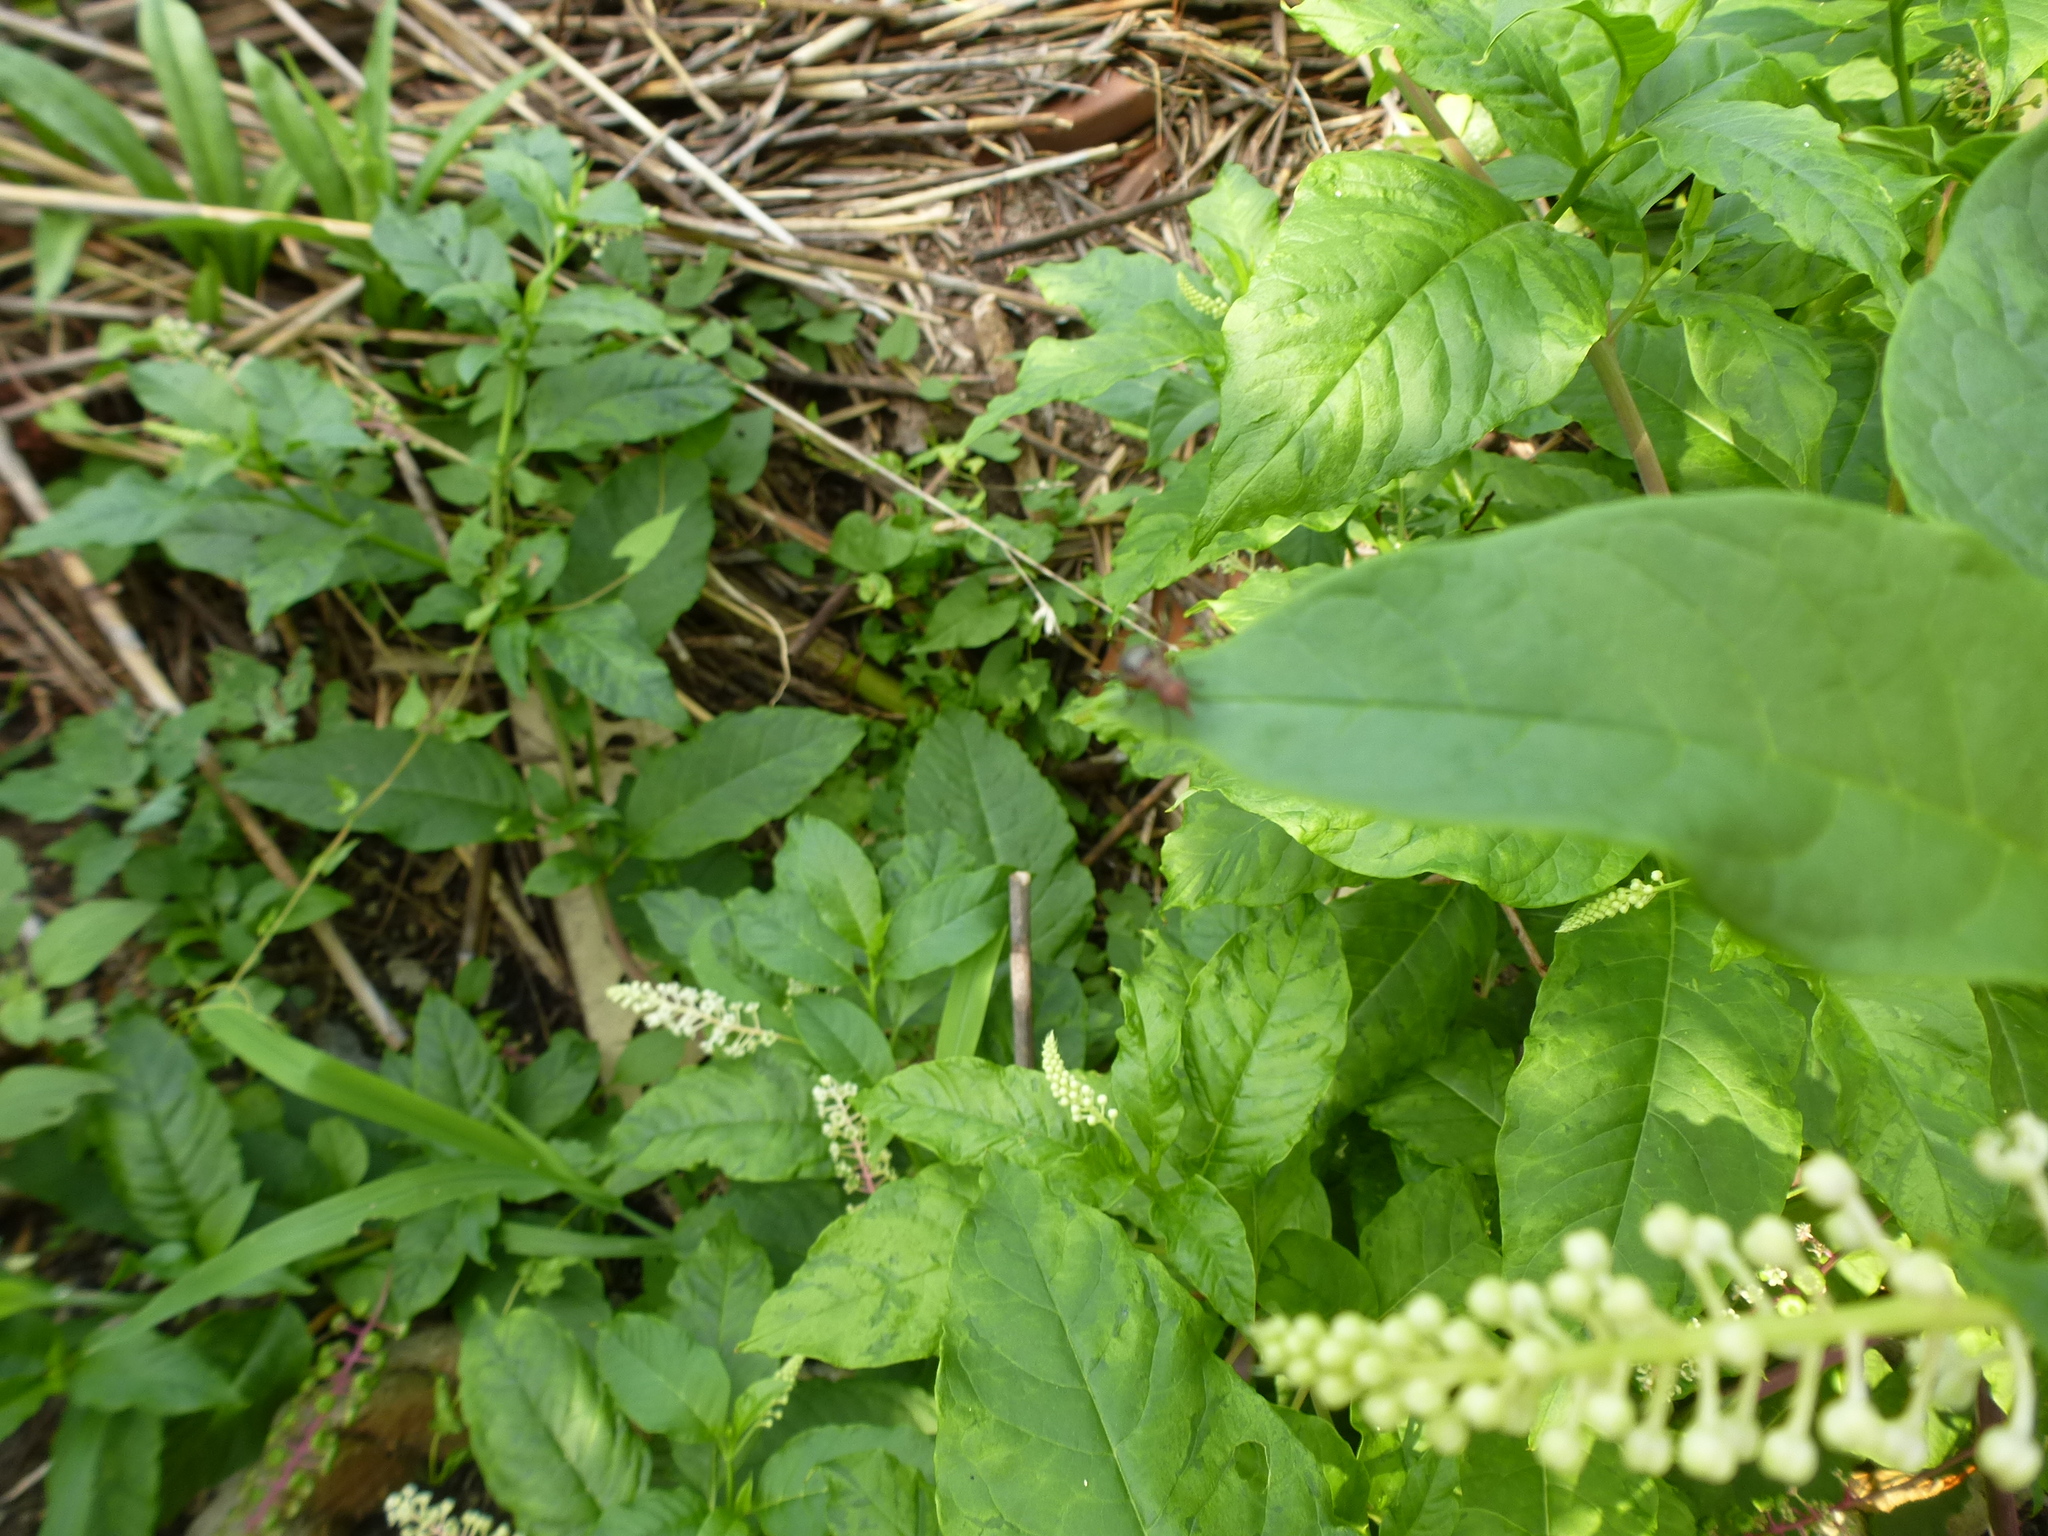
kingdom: Animalia
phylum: Arthropoda
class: Insecta
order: Diptera
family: Ulidiidae
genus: Delphinia
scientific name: Delphinia picta
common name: Common picture-winged fly
